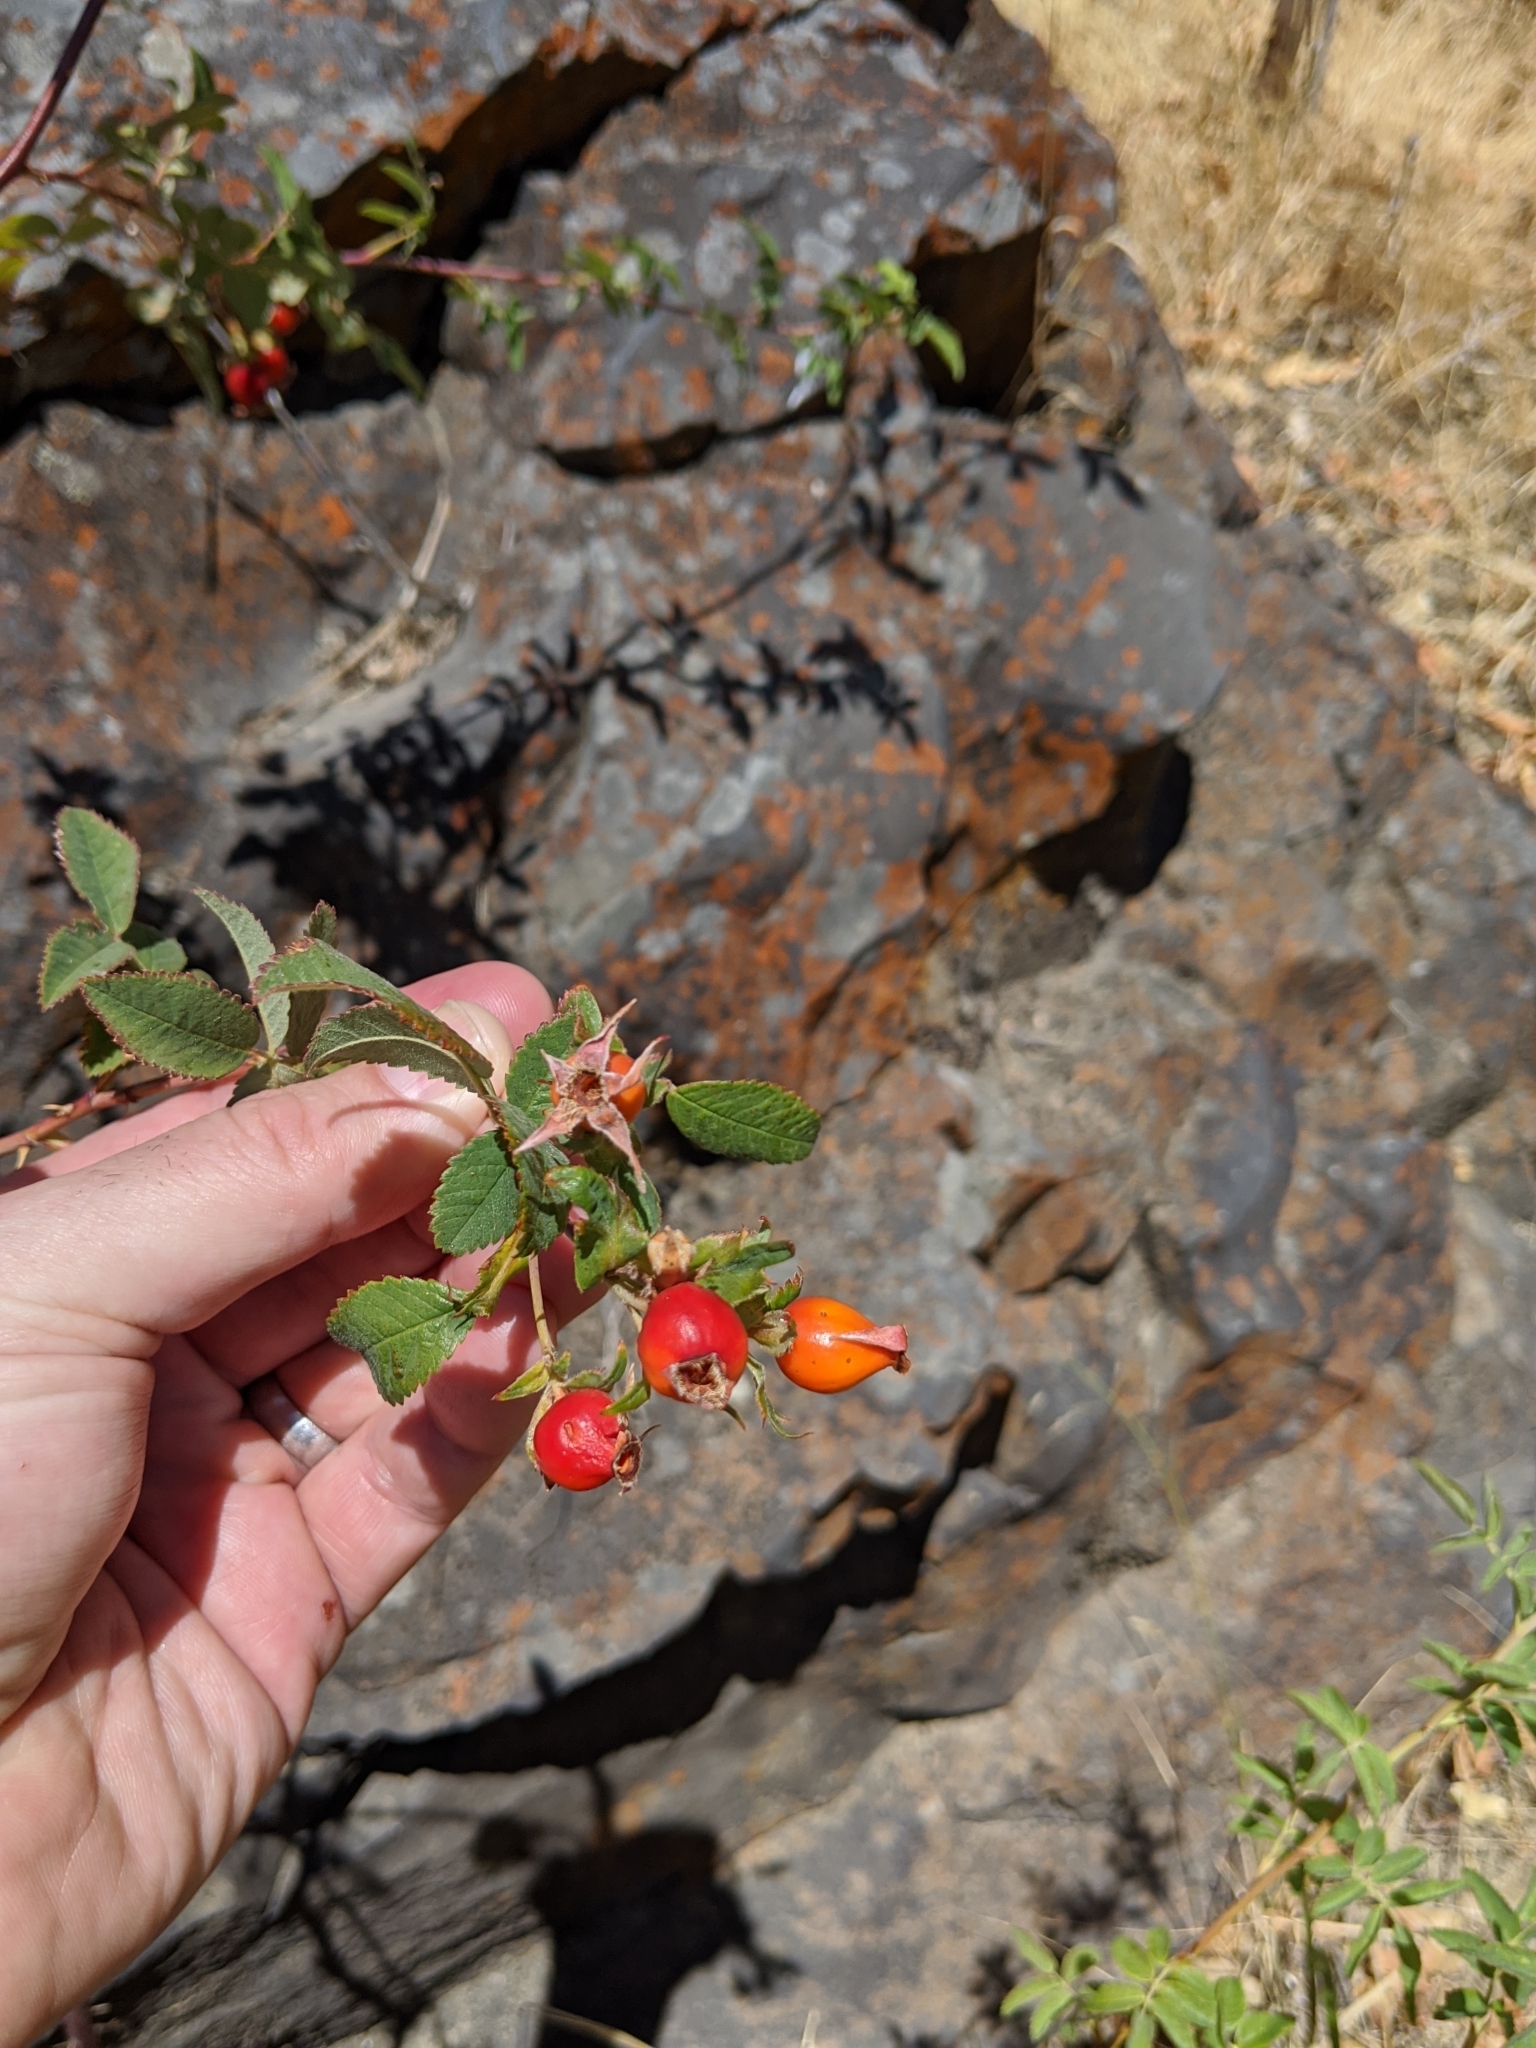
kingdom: Plantae
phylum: Tracheophyta
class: Magnoliopsida
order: Rosales
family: Rosaceae
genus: Rosa
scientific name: Rosa californica
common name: California rose
